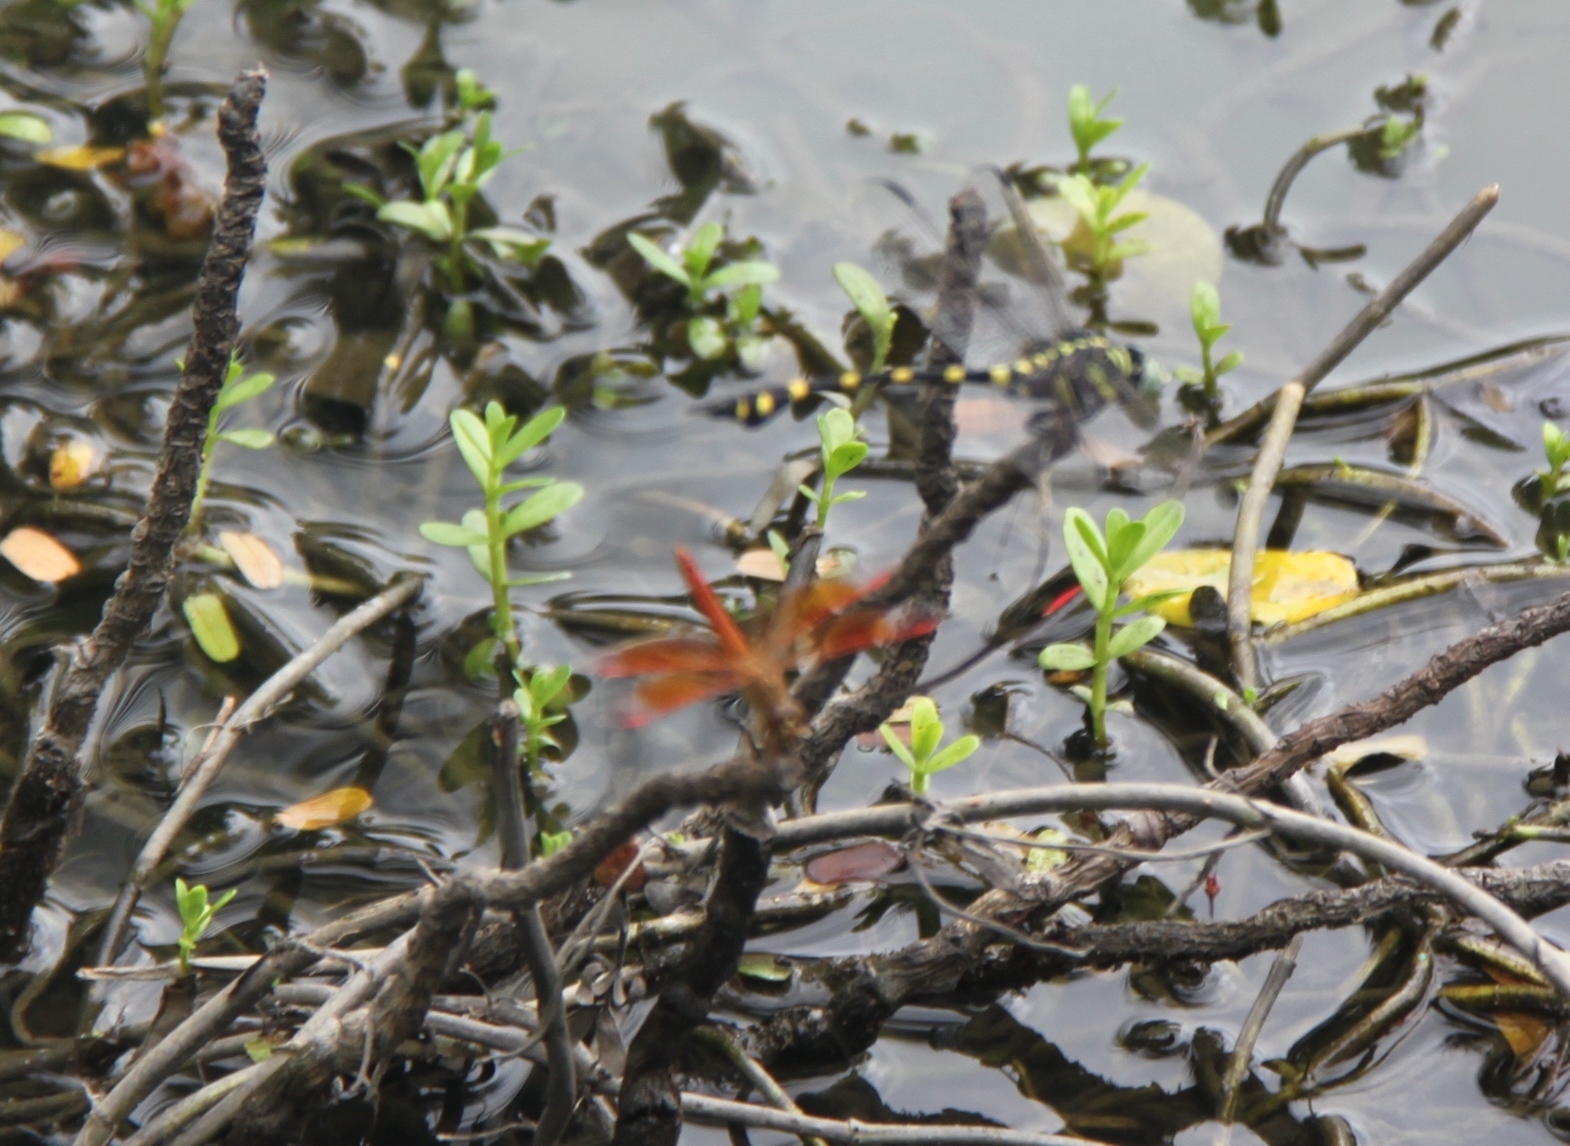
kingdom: Animalia
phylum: Arthropoda
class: Insecta
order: Odonata
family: Gomphidae
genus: Ictinogomphus
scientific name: Ictinogomphus decoratus
